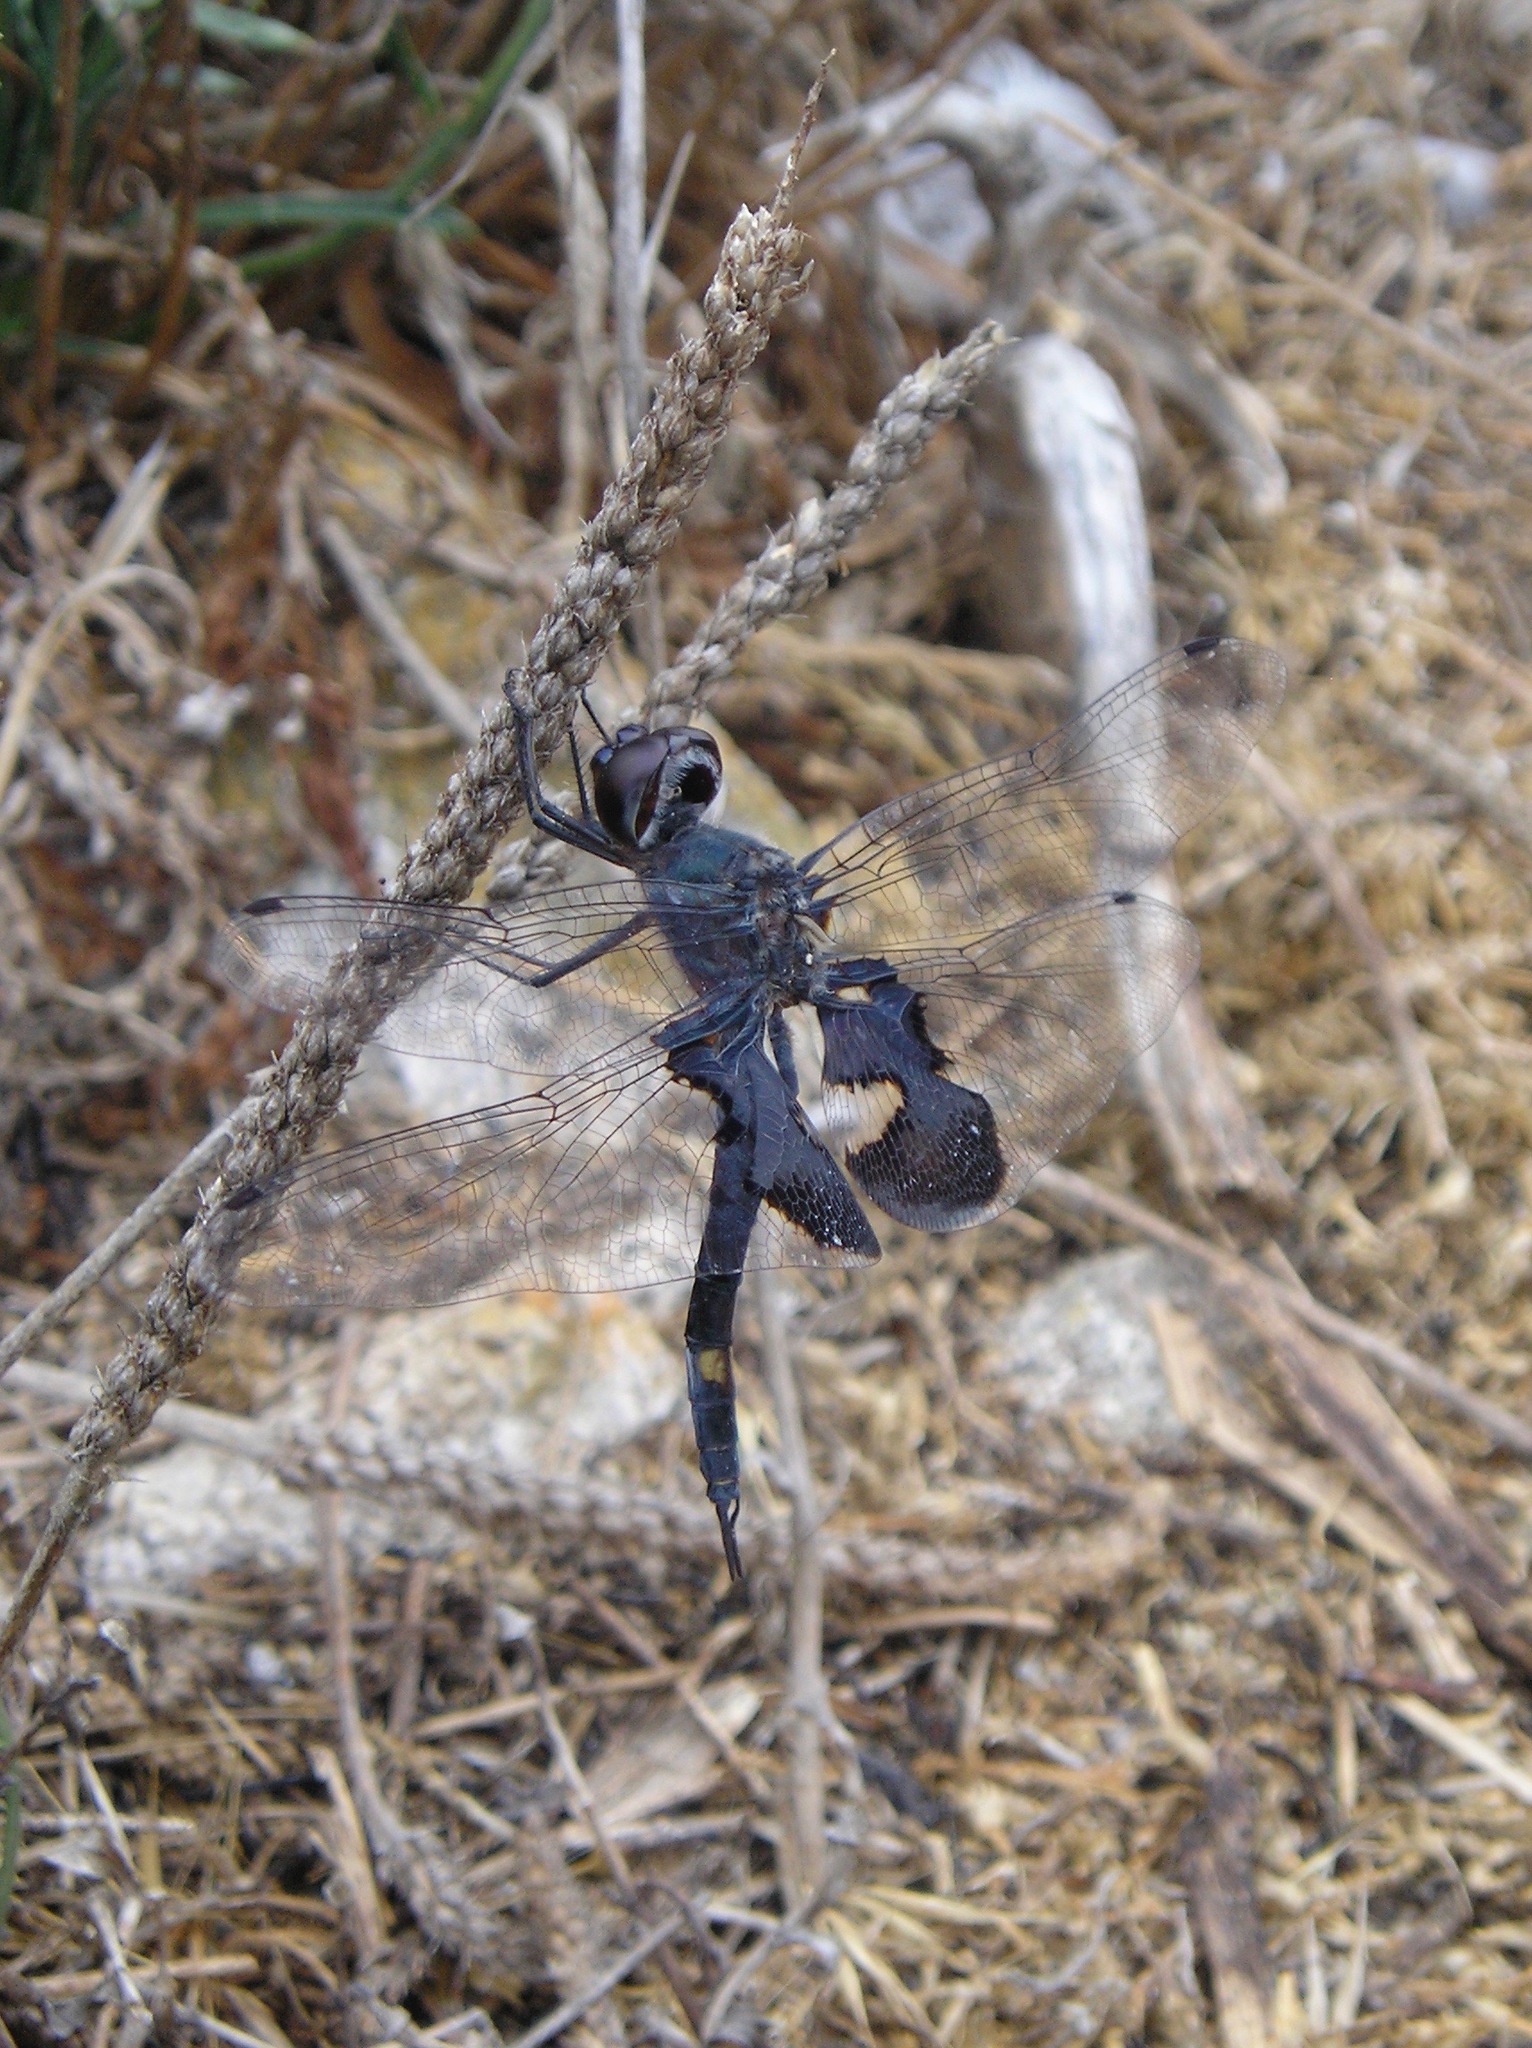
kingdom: Animalia
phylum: Arthropoda
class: Insecta
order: Odonata
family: Libellulidae
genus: Tramea
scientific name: Tramea lacerata
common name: Black saddlebags
